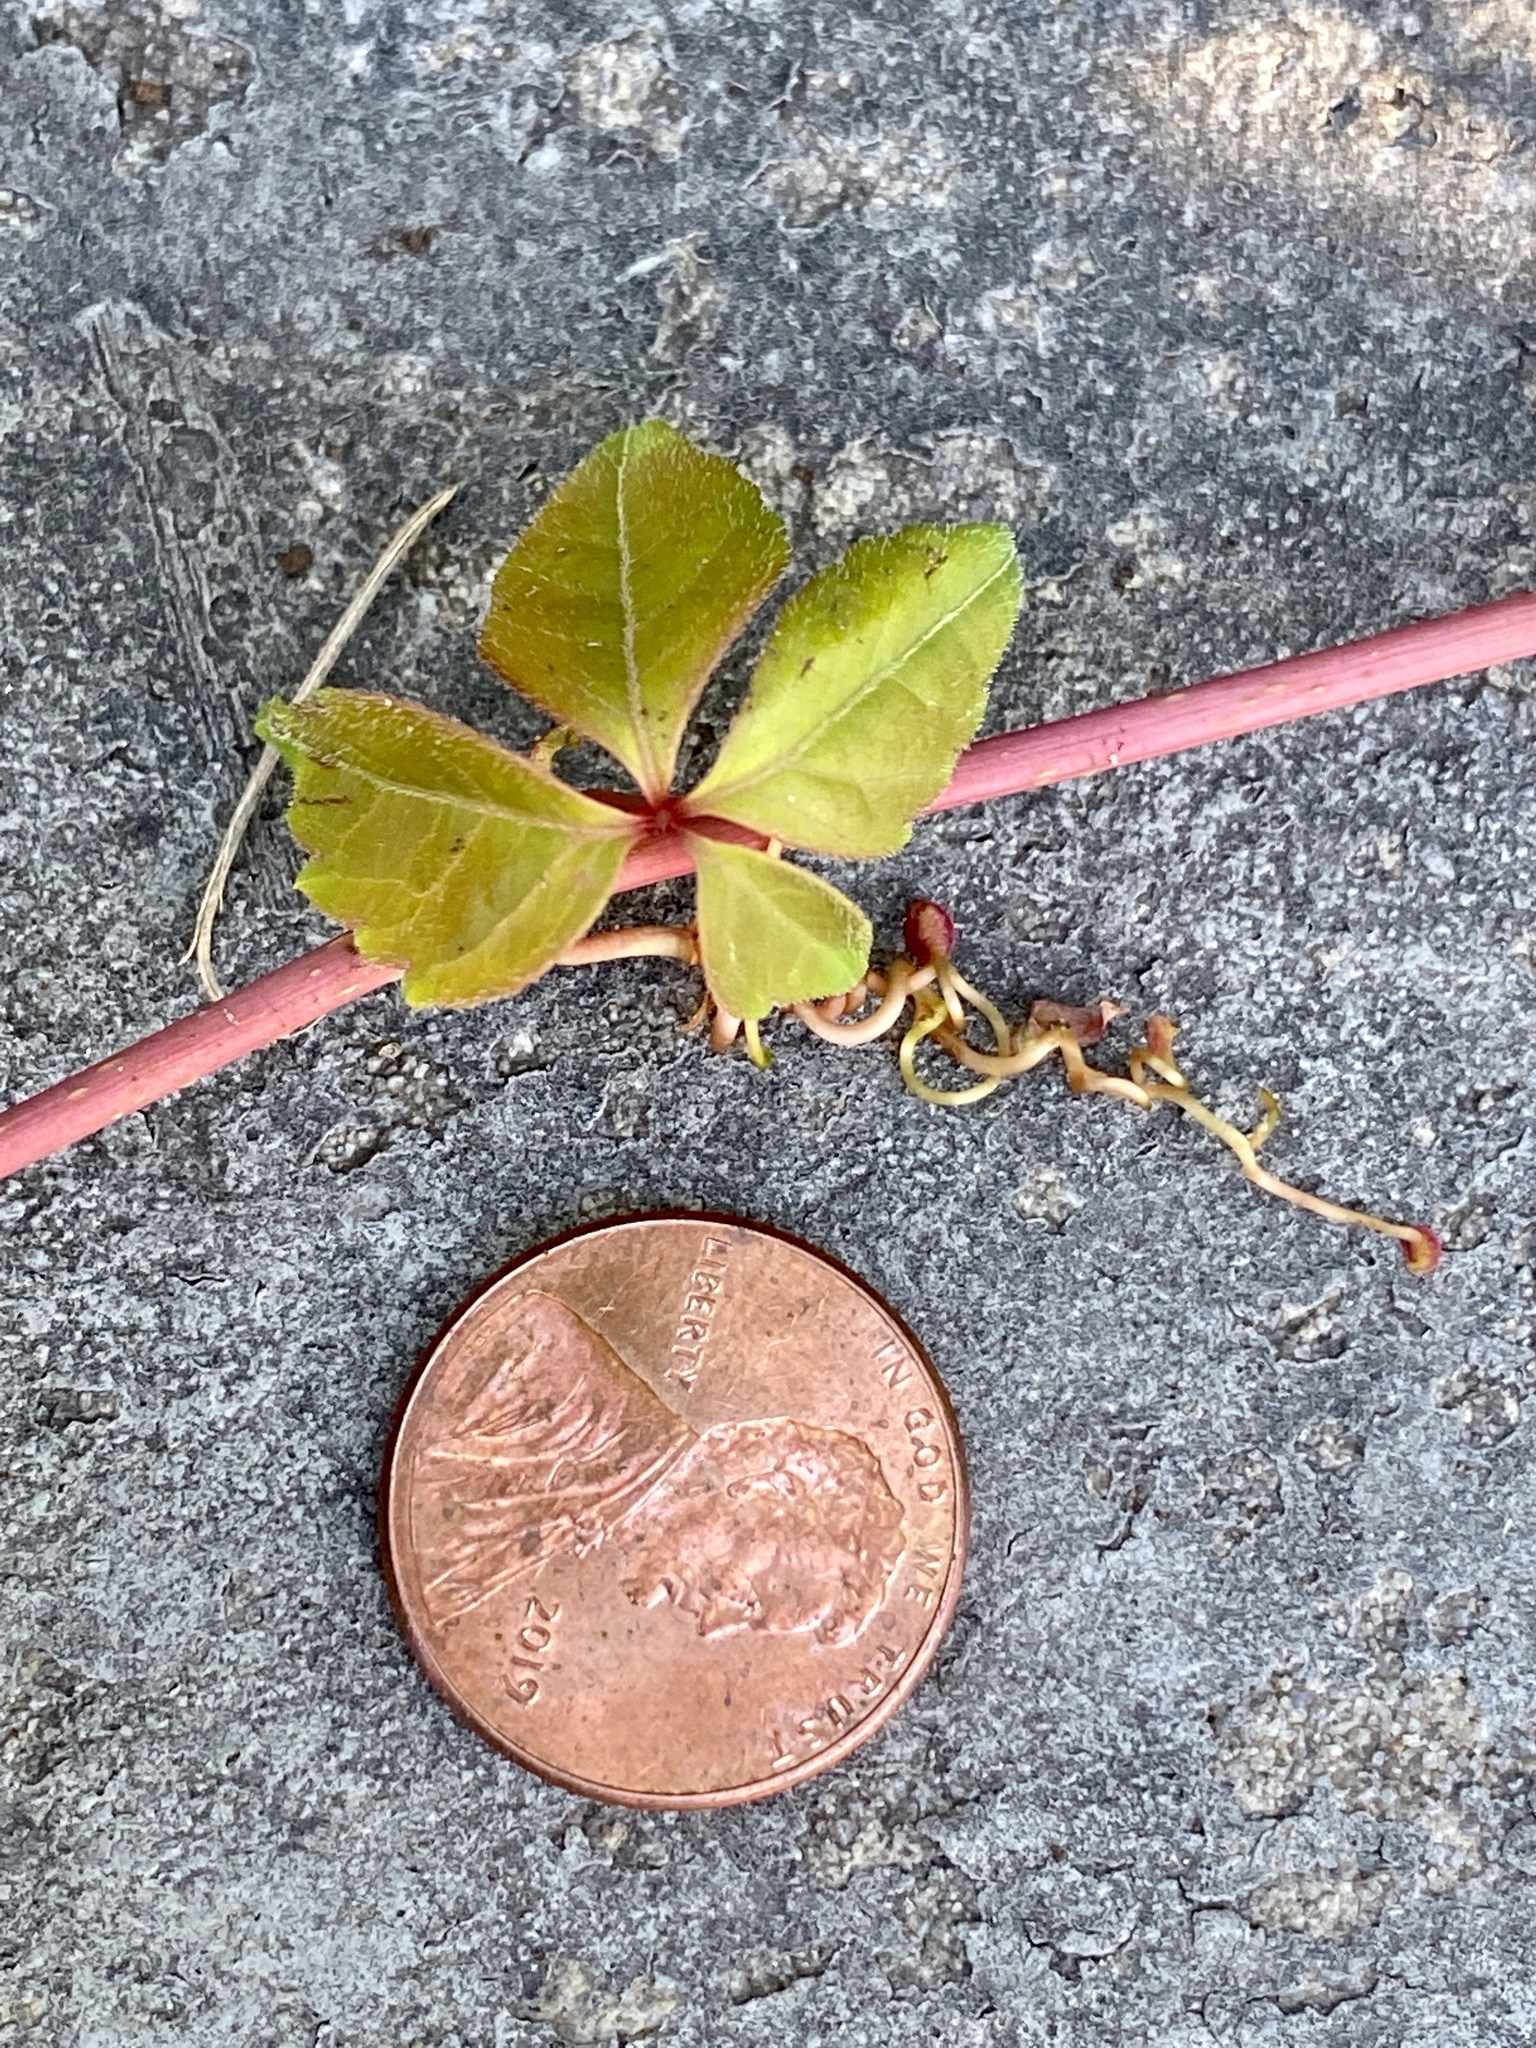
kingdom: Plantae
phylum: Tracheophyta
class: Magnoliopsida
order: Vitales
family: Vitaceae
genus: Parthenocissus
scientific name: Parthenocissus quinquefolia
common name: Virginia-creeper
